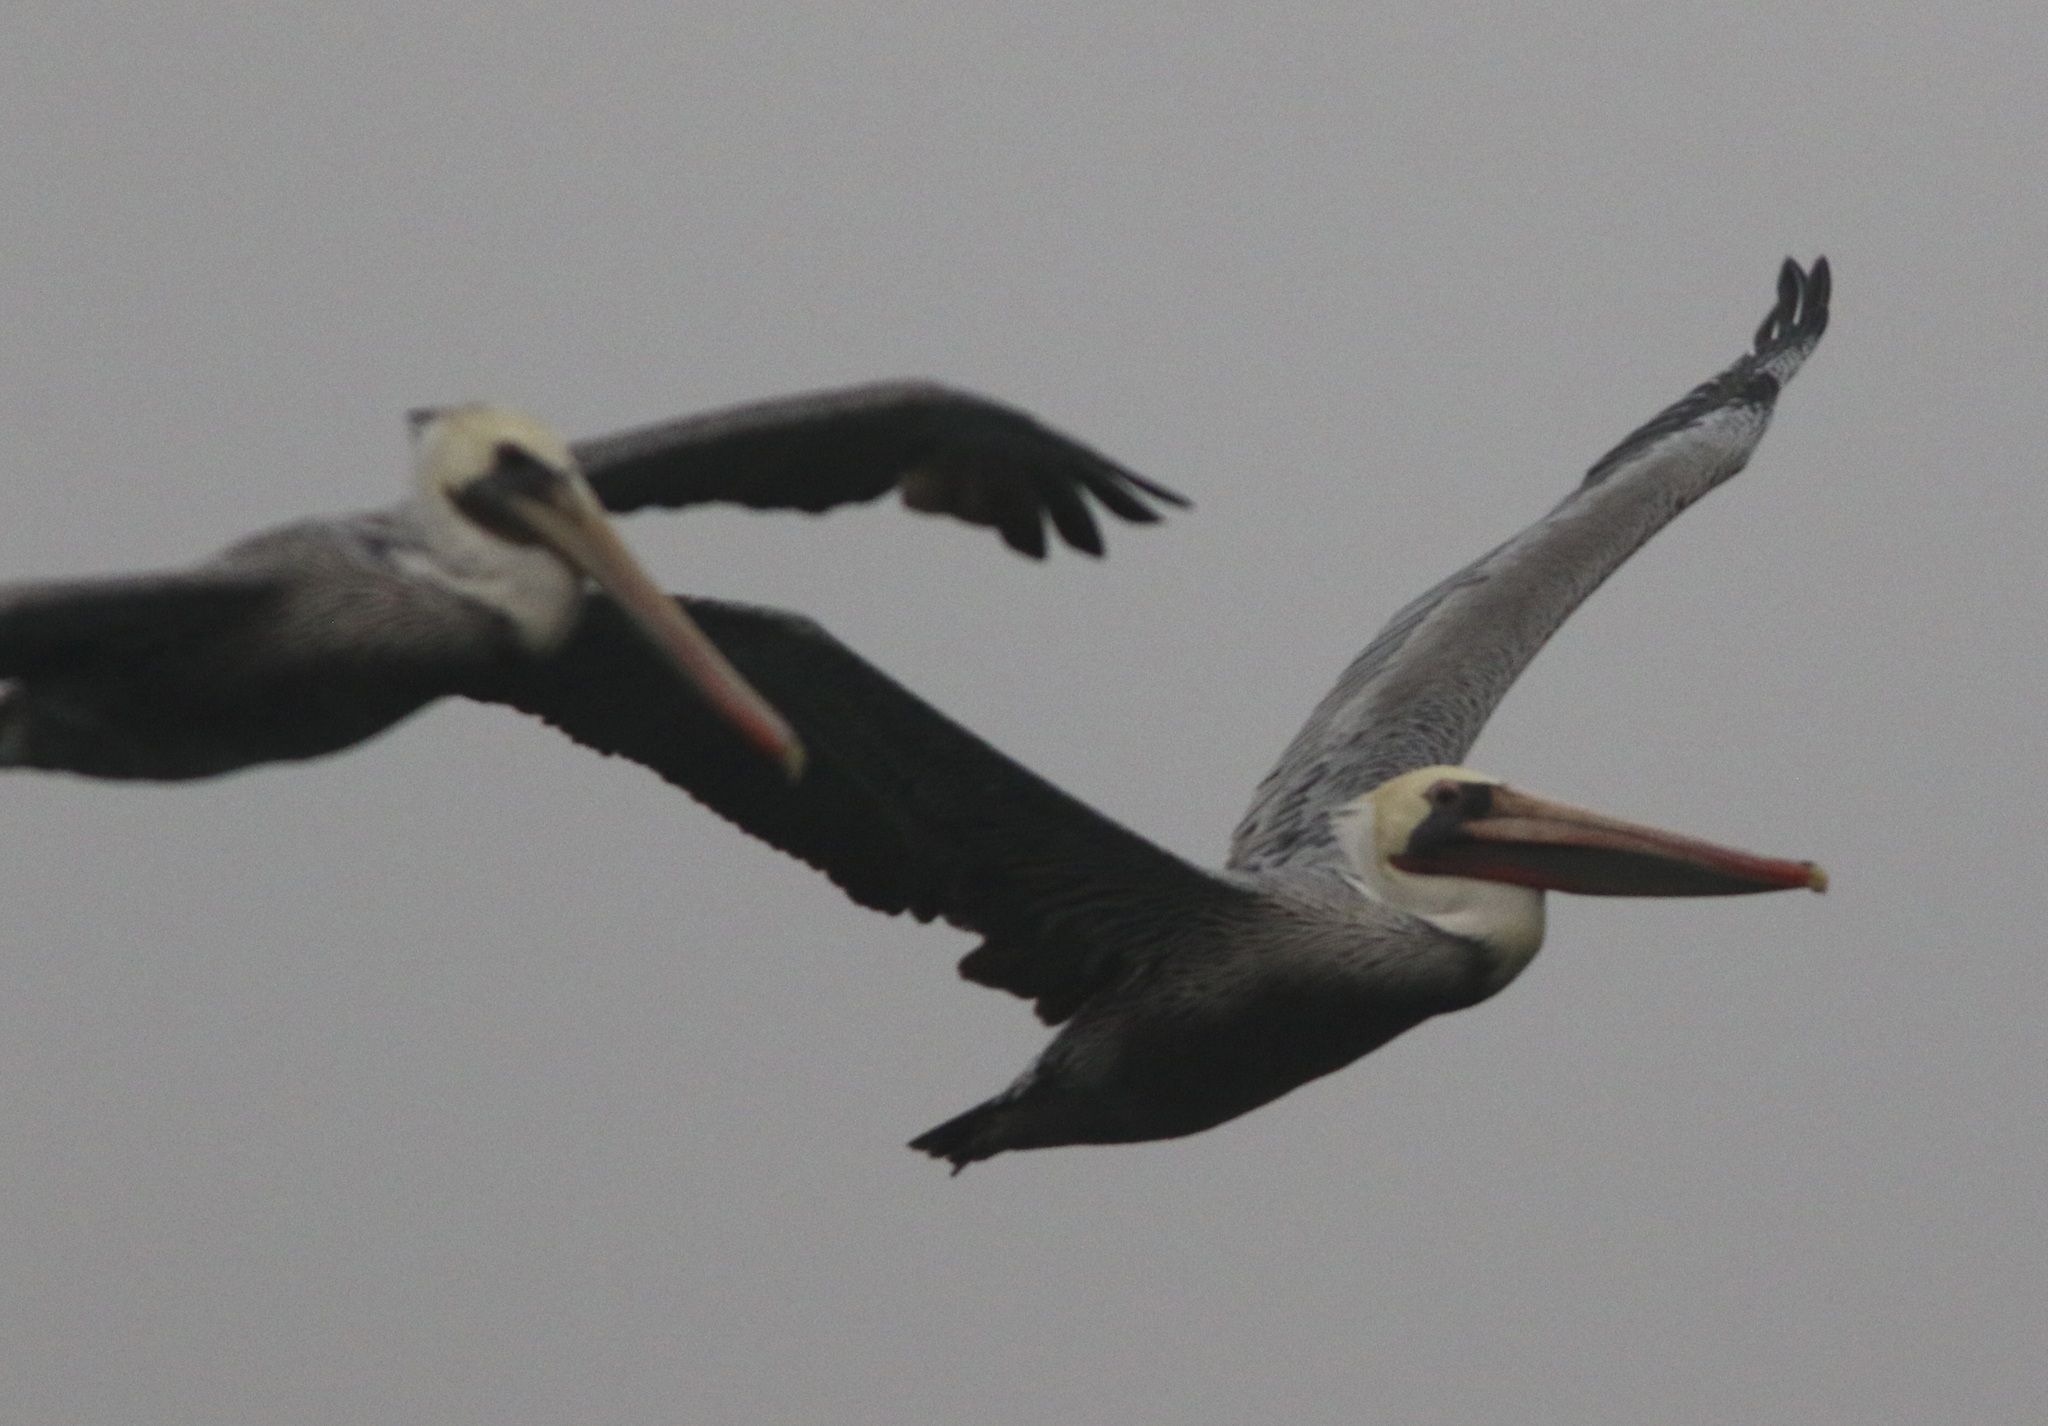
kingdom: Animalia
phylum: Chordata
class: Aves
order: Pelecaniformes
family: Pelecanidae
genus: Pelecanus
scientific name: Pelecanus occidentalis
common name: Brown pelican
